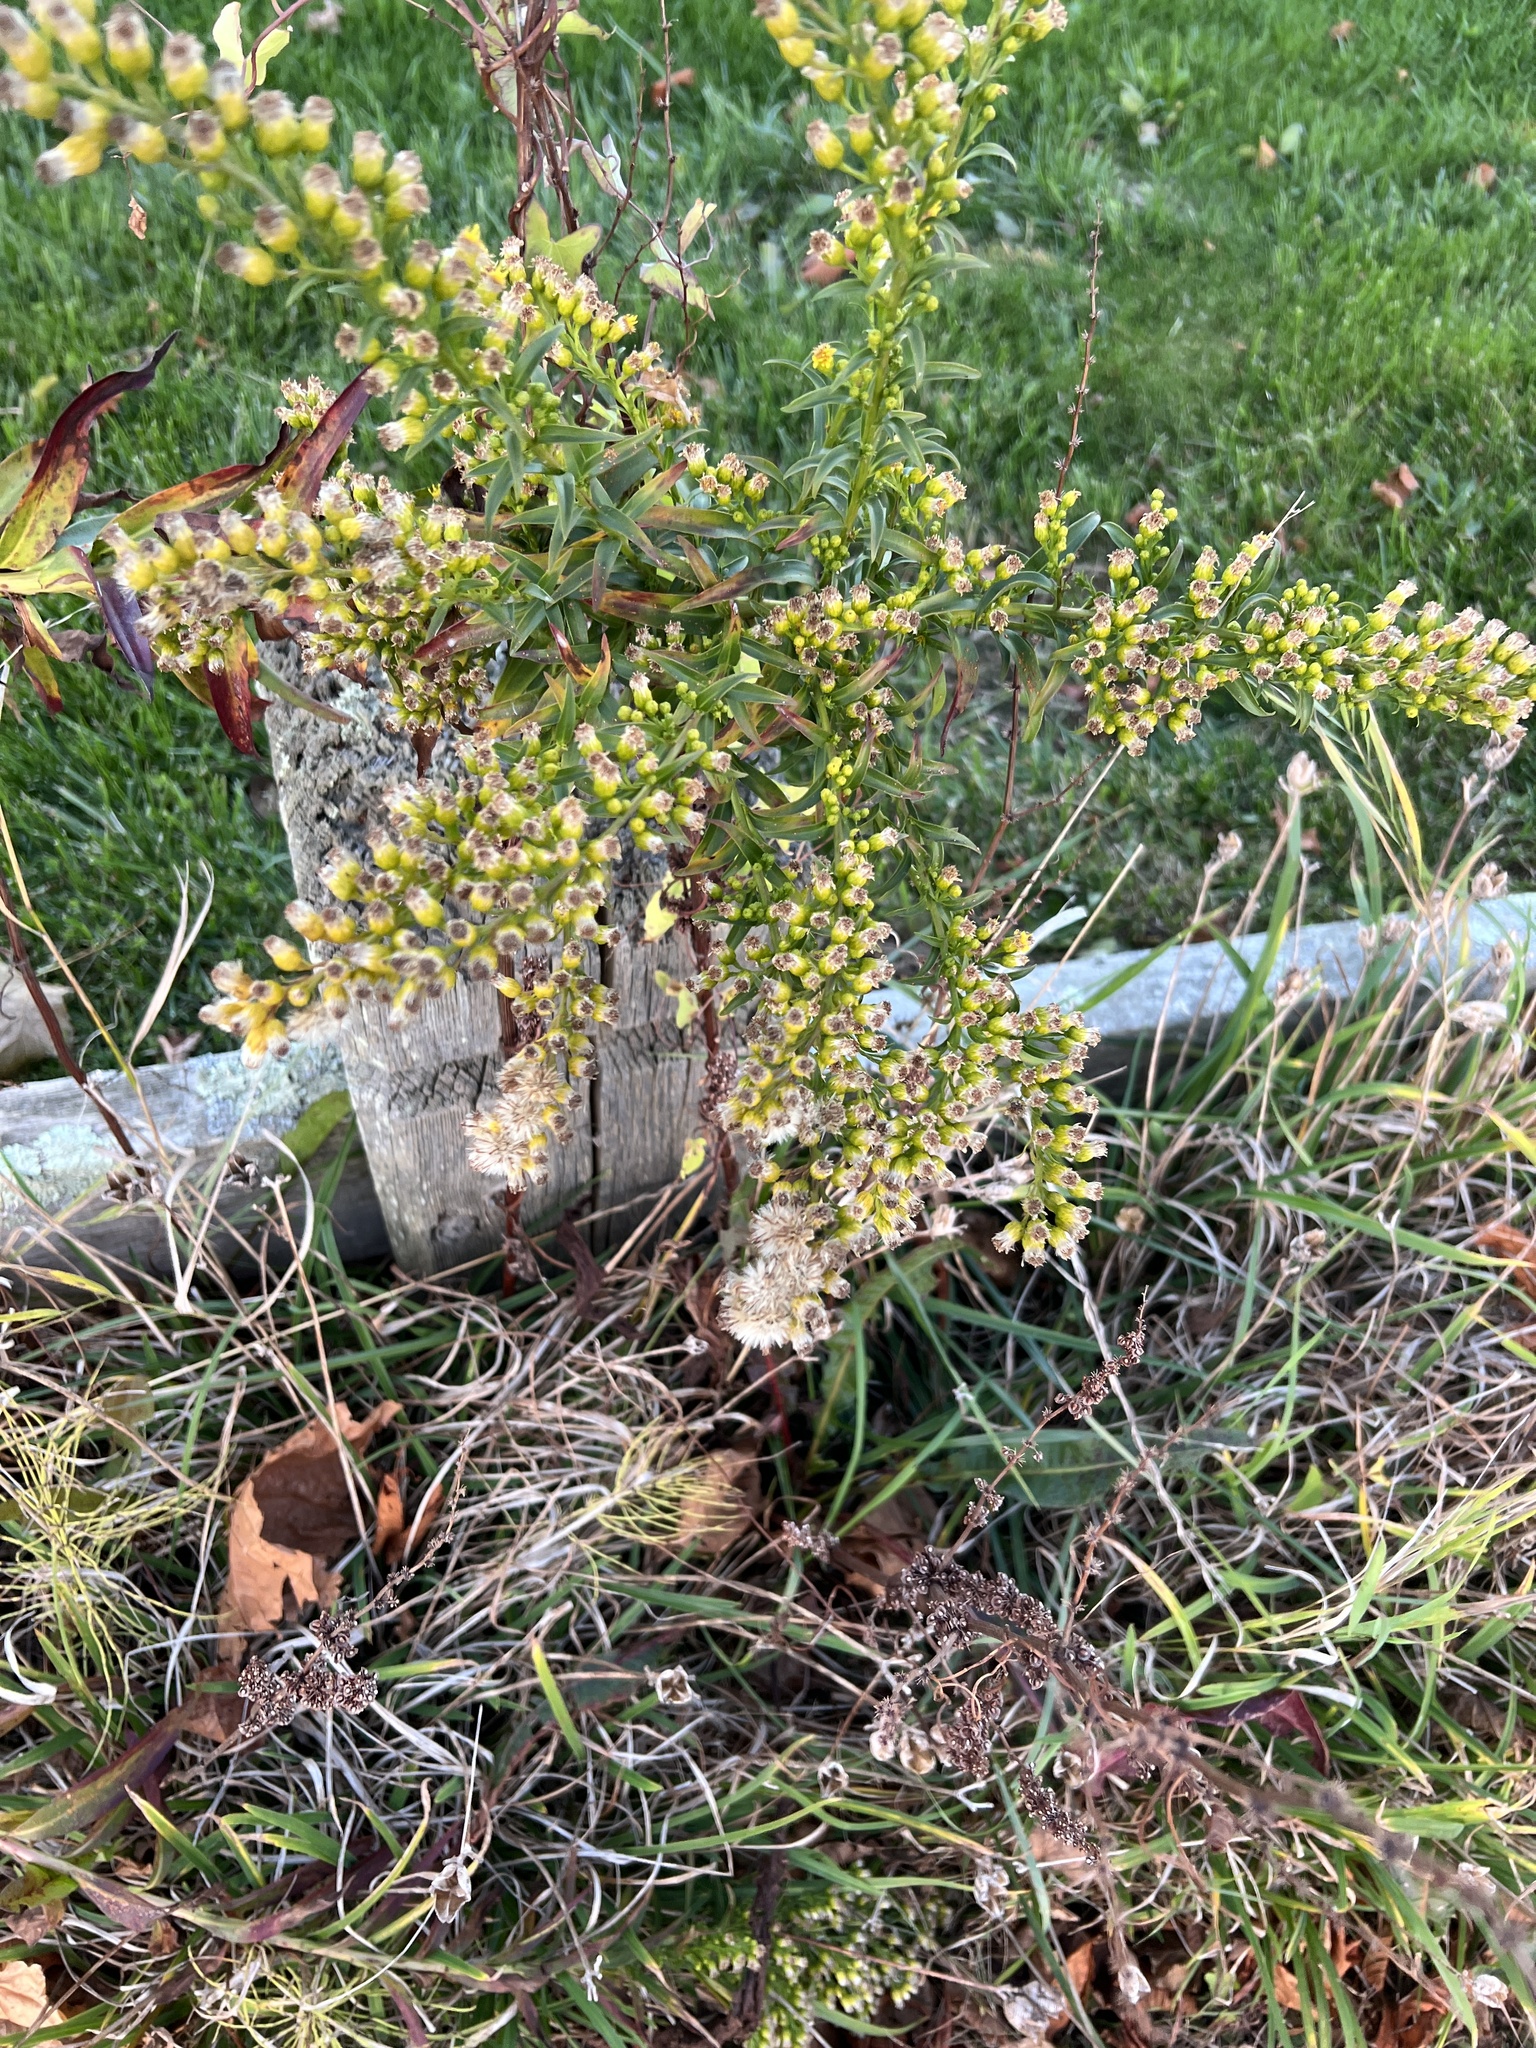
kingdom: Plantae
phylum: Tracheophyta
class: Magnoliopsida
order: Asterales
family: Asteraceae
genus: Solidago
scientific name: Solidago sempervirens
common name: Salt-marsh goldenrod
